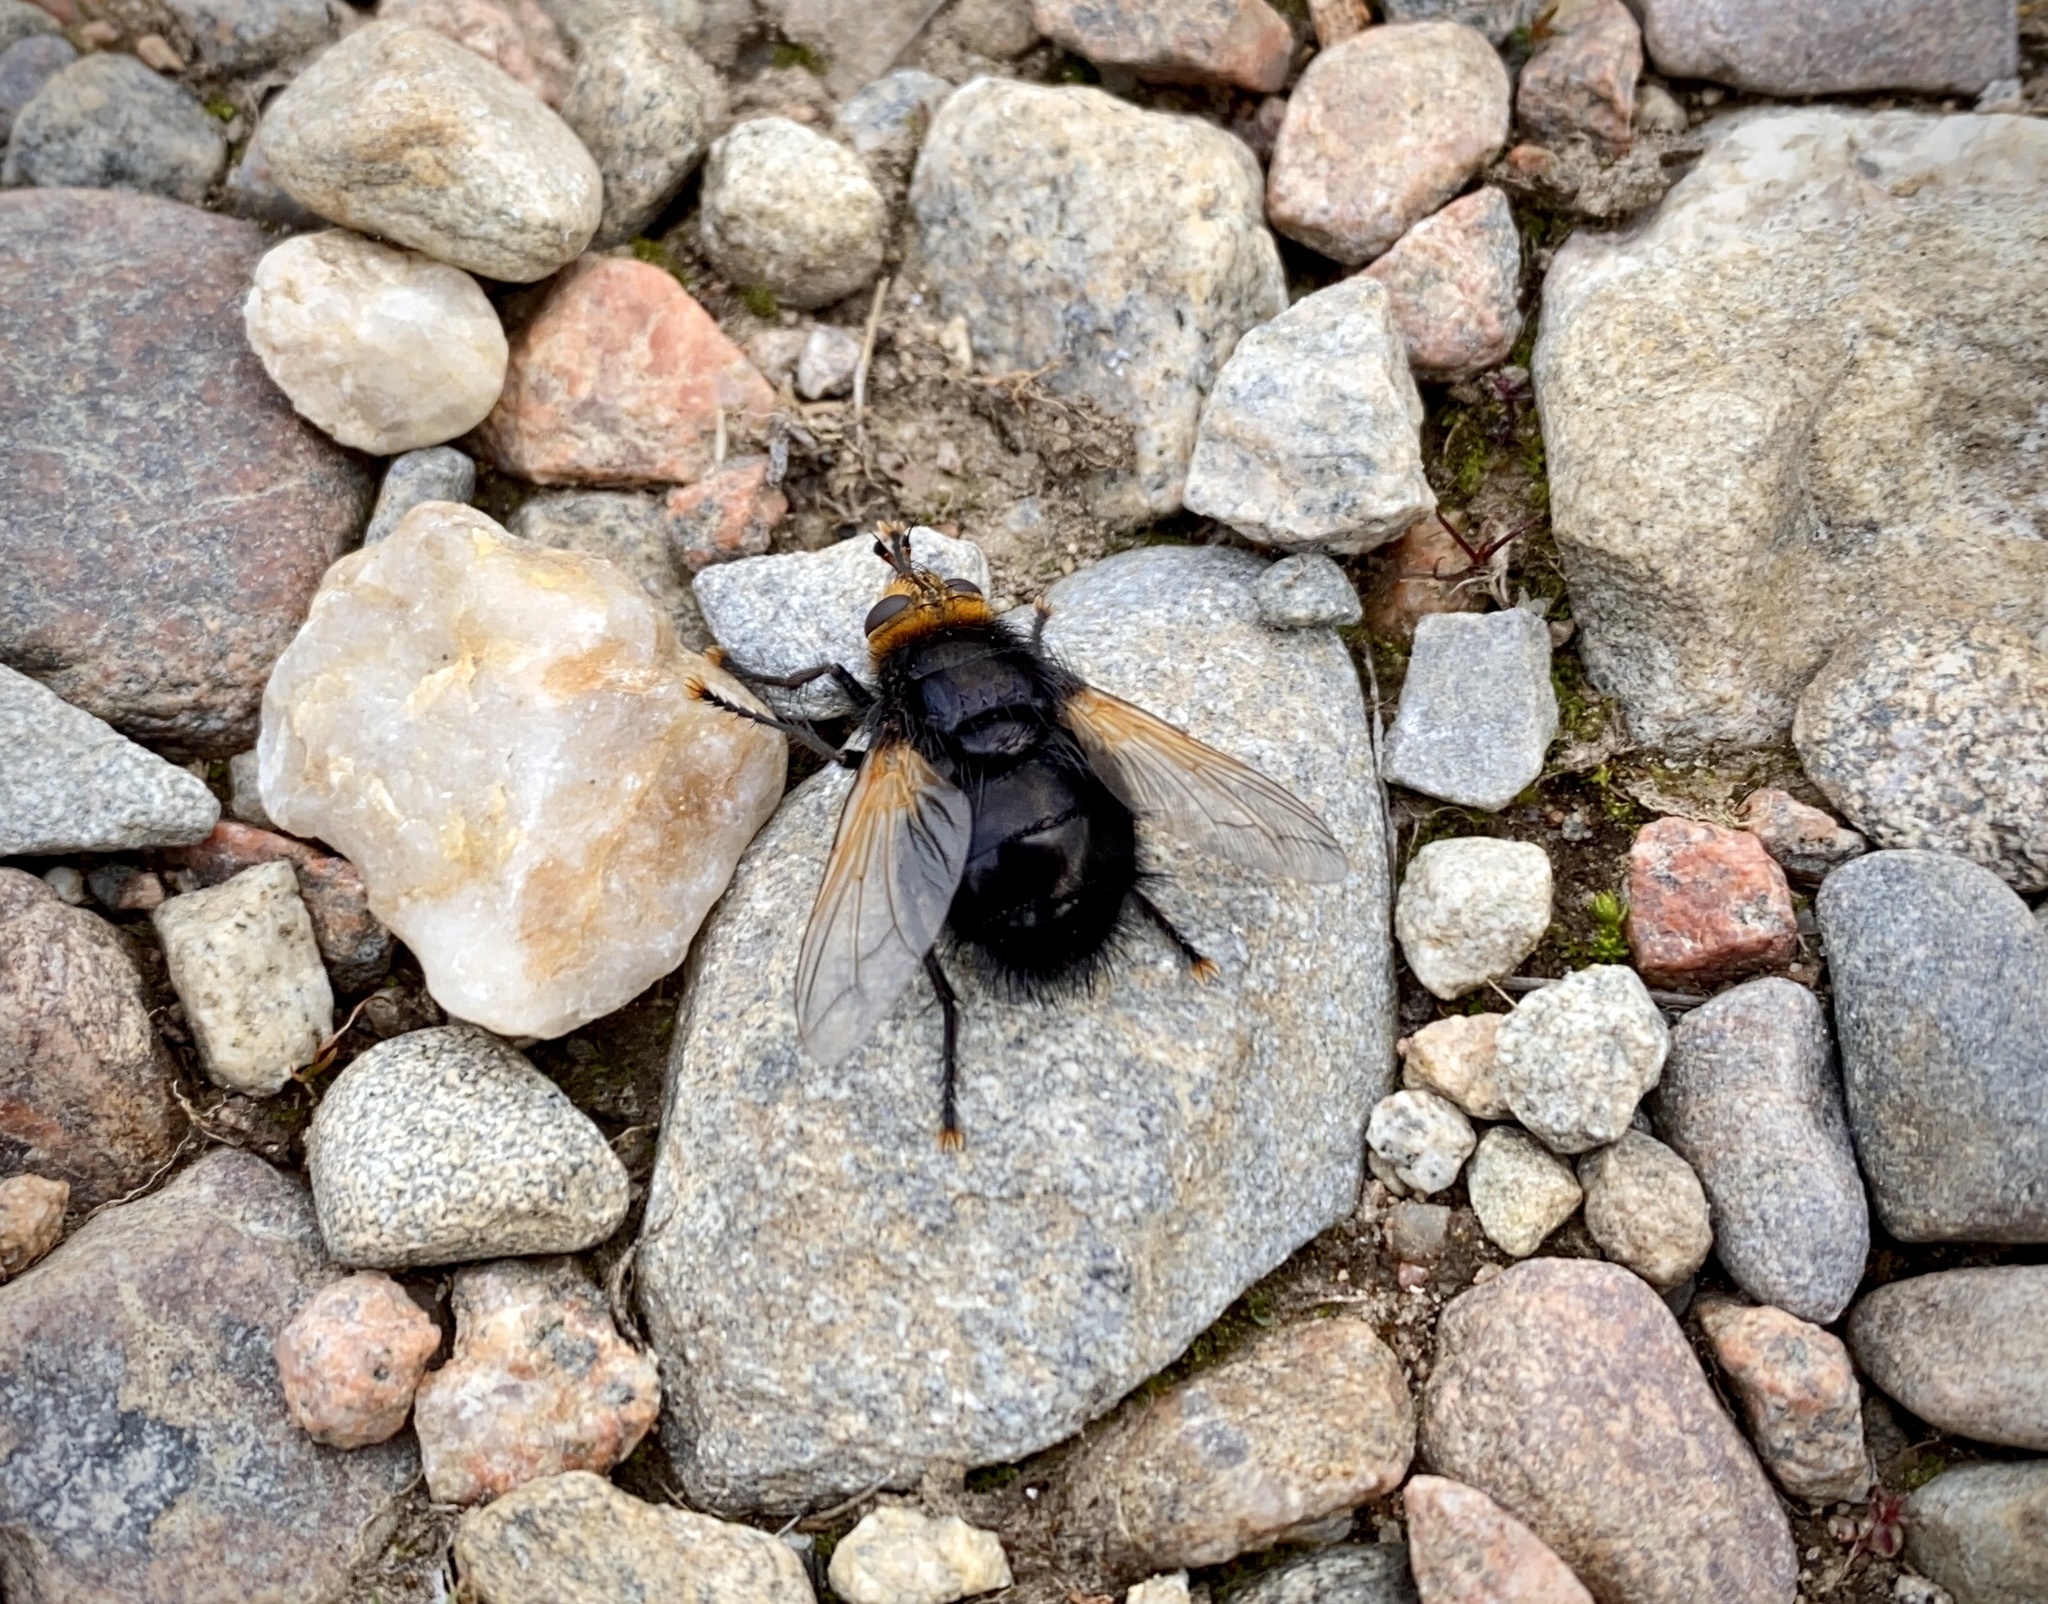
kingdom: Animalia
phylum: Arthropoda
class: Insecta
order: Diptera
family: Tachinidae
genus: Tachina
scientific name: Tachina grossa
